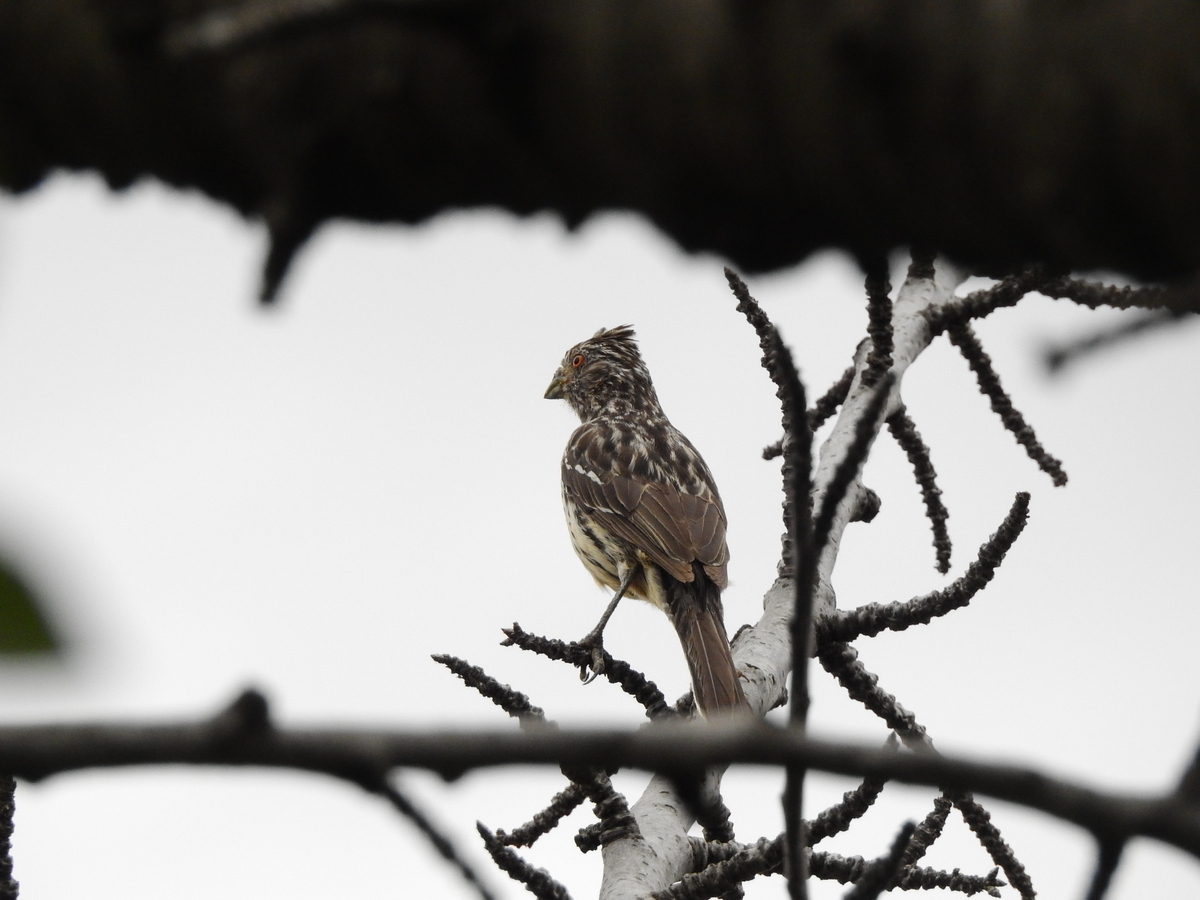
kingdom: Animalia
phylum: Chordata
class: Aves
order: Passeriformes
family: Cotingidae
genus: Phytotoma
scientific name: Phytotoma rutila
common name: White-tipped plantcutter
